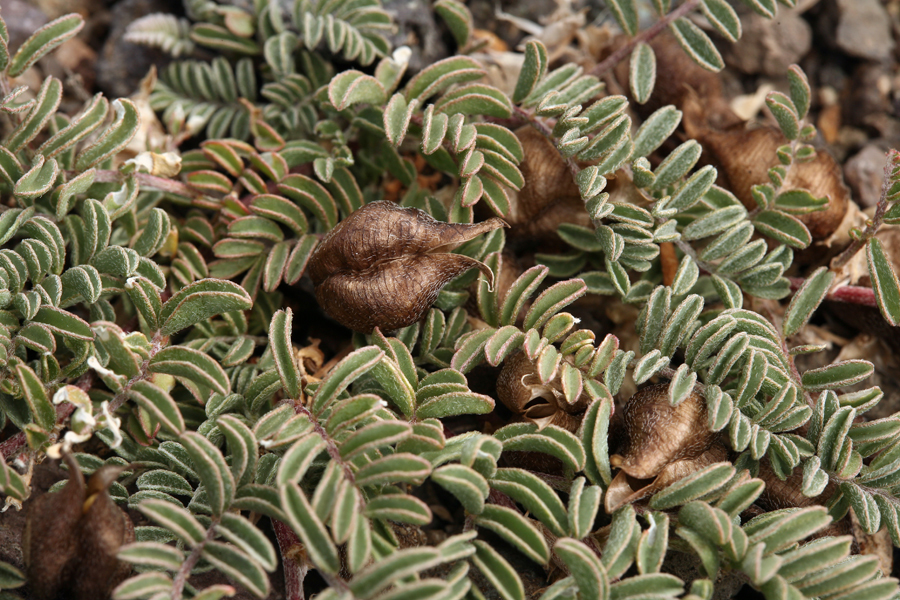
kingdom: Plantae
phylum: Tracheophyta
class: Magnoliopsida
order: Fabales
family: Fabaceae
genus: Astragalus
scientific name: Astragalus lentiginosus
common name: Freckled milkvetch
